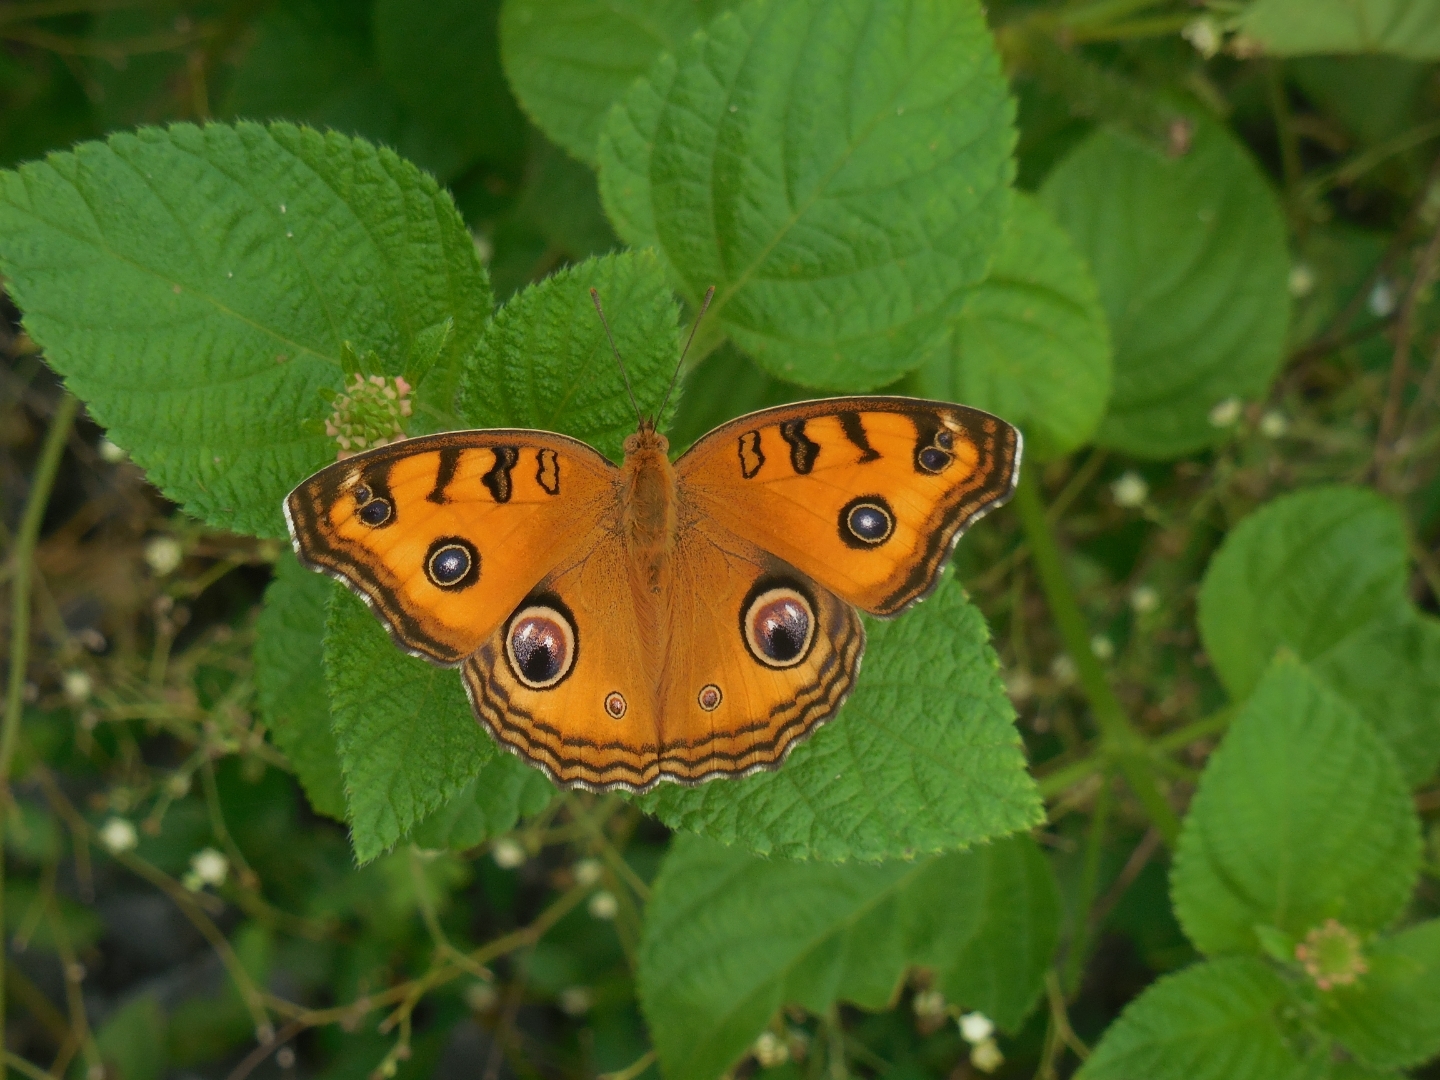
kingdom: Animalia
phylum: Arthropoda
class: Insecta
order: Lepidoptera
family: Nymphalidae
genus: Junonia
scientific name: Junonia almana
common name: Peacock pansy
